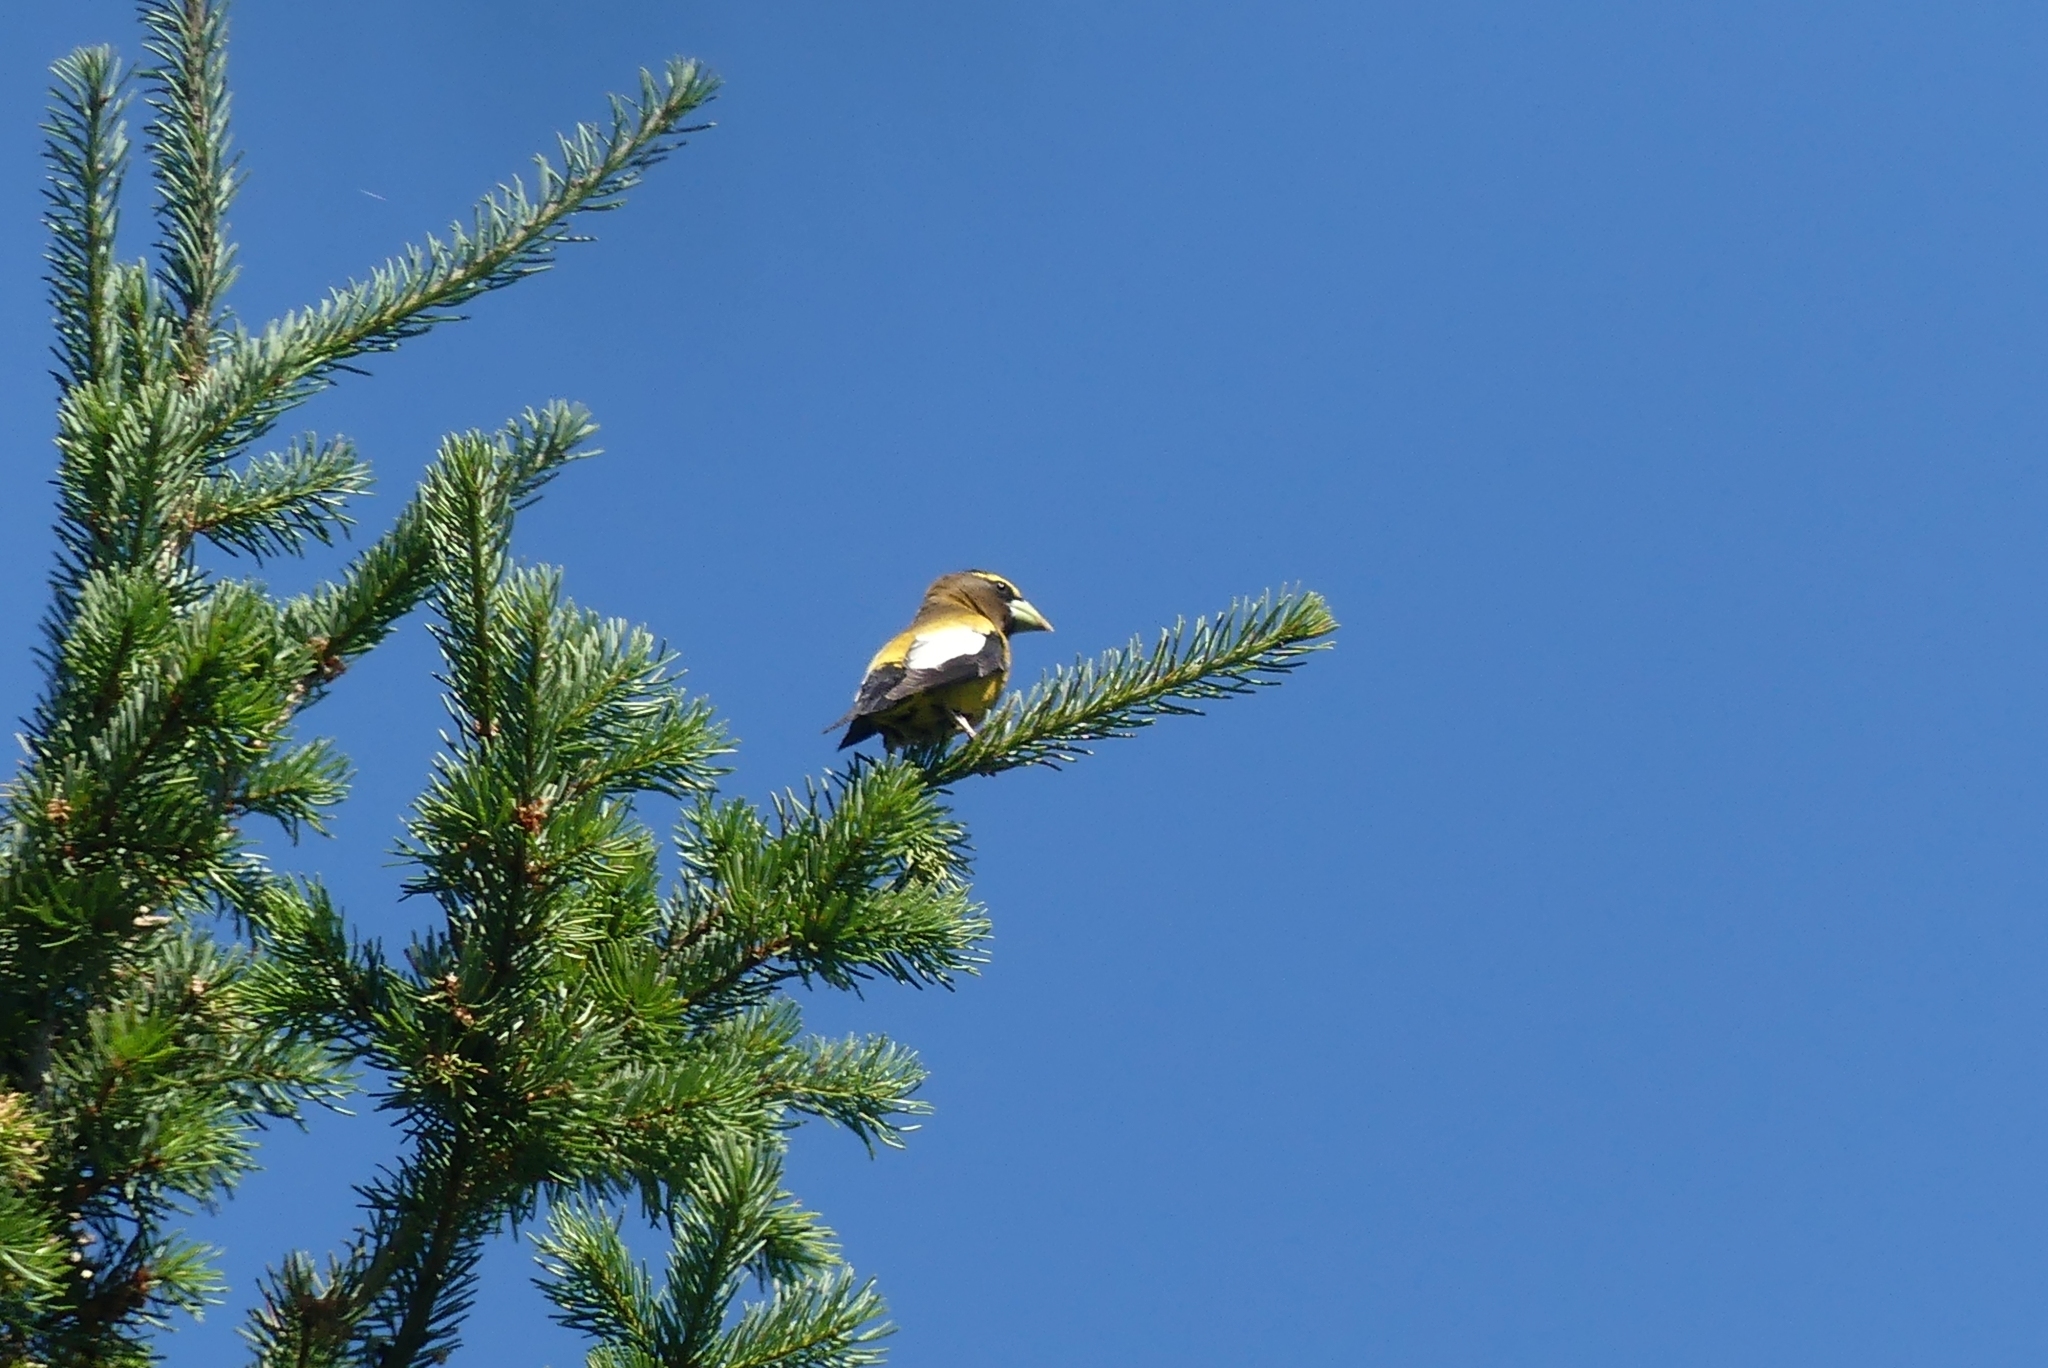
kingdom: Animalia
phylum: Chordata
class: Aves
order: Passeriformes
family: Fringillidae
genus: Hesperiphona
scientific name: Hesperiphona vespertina
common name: Evening grosbeak
